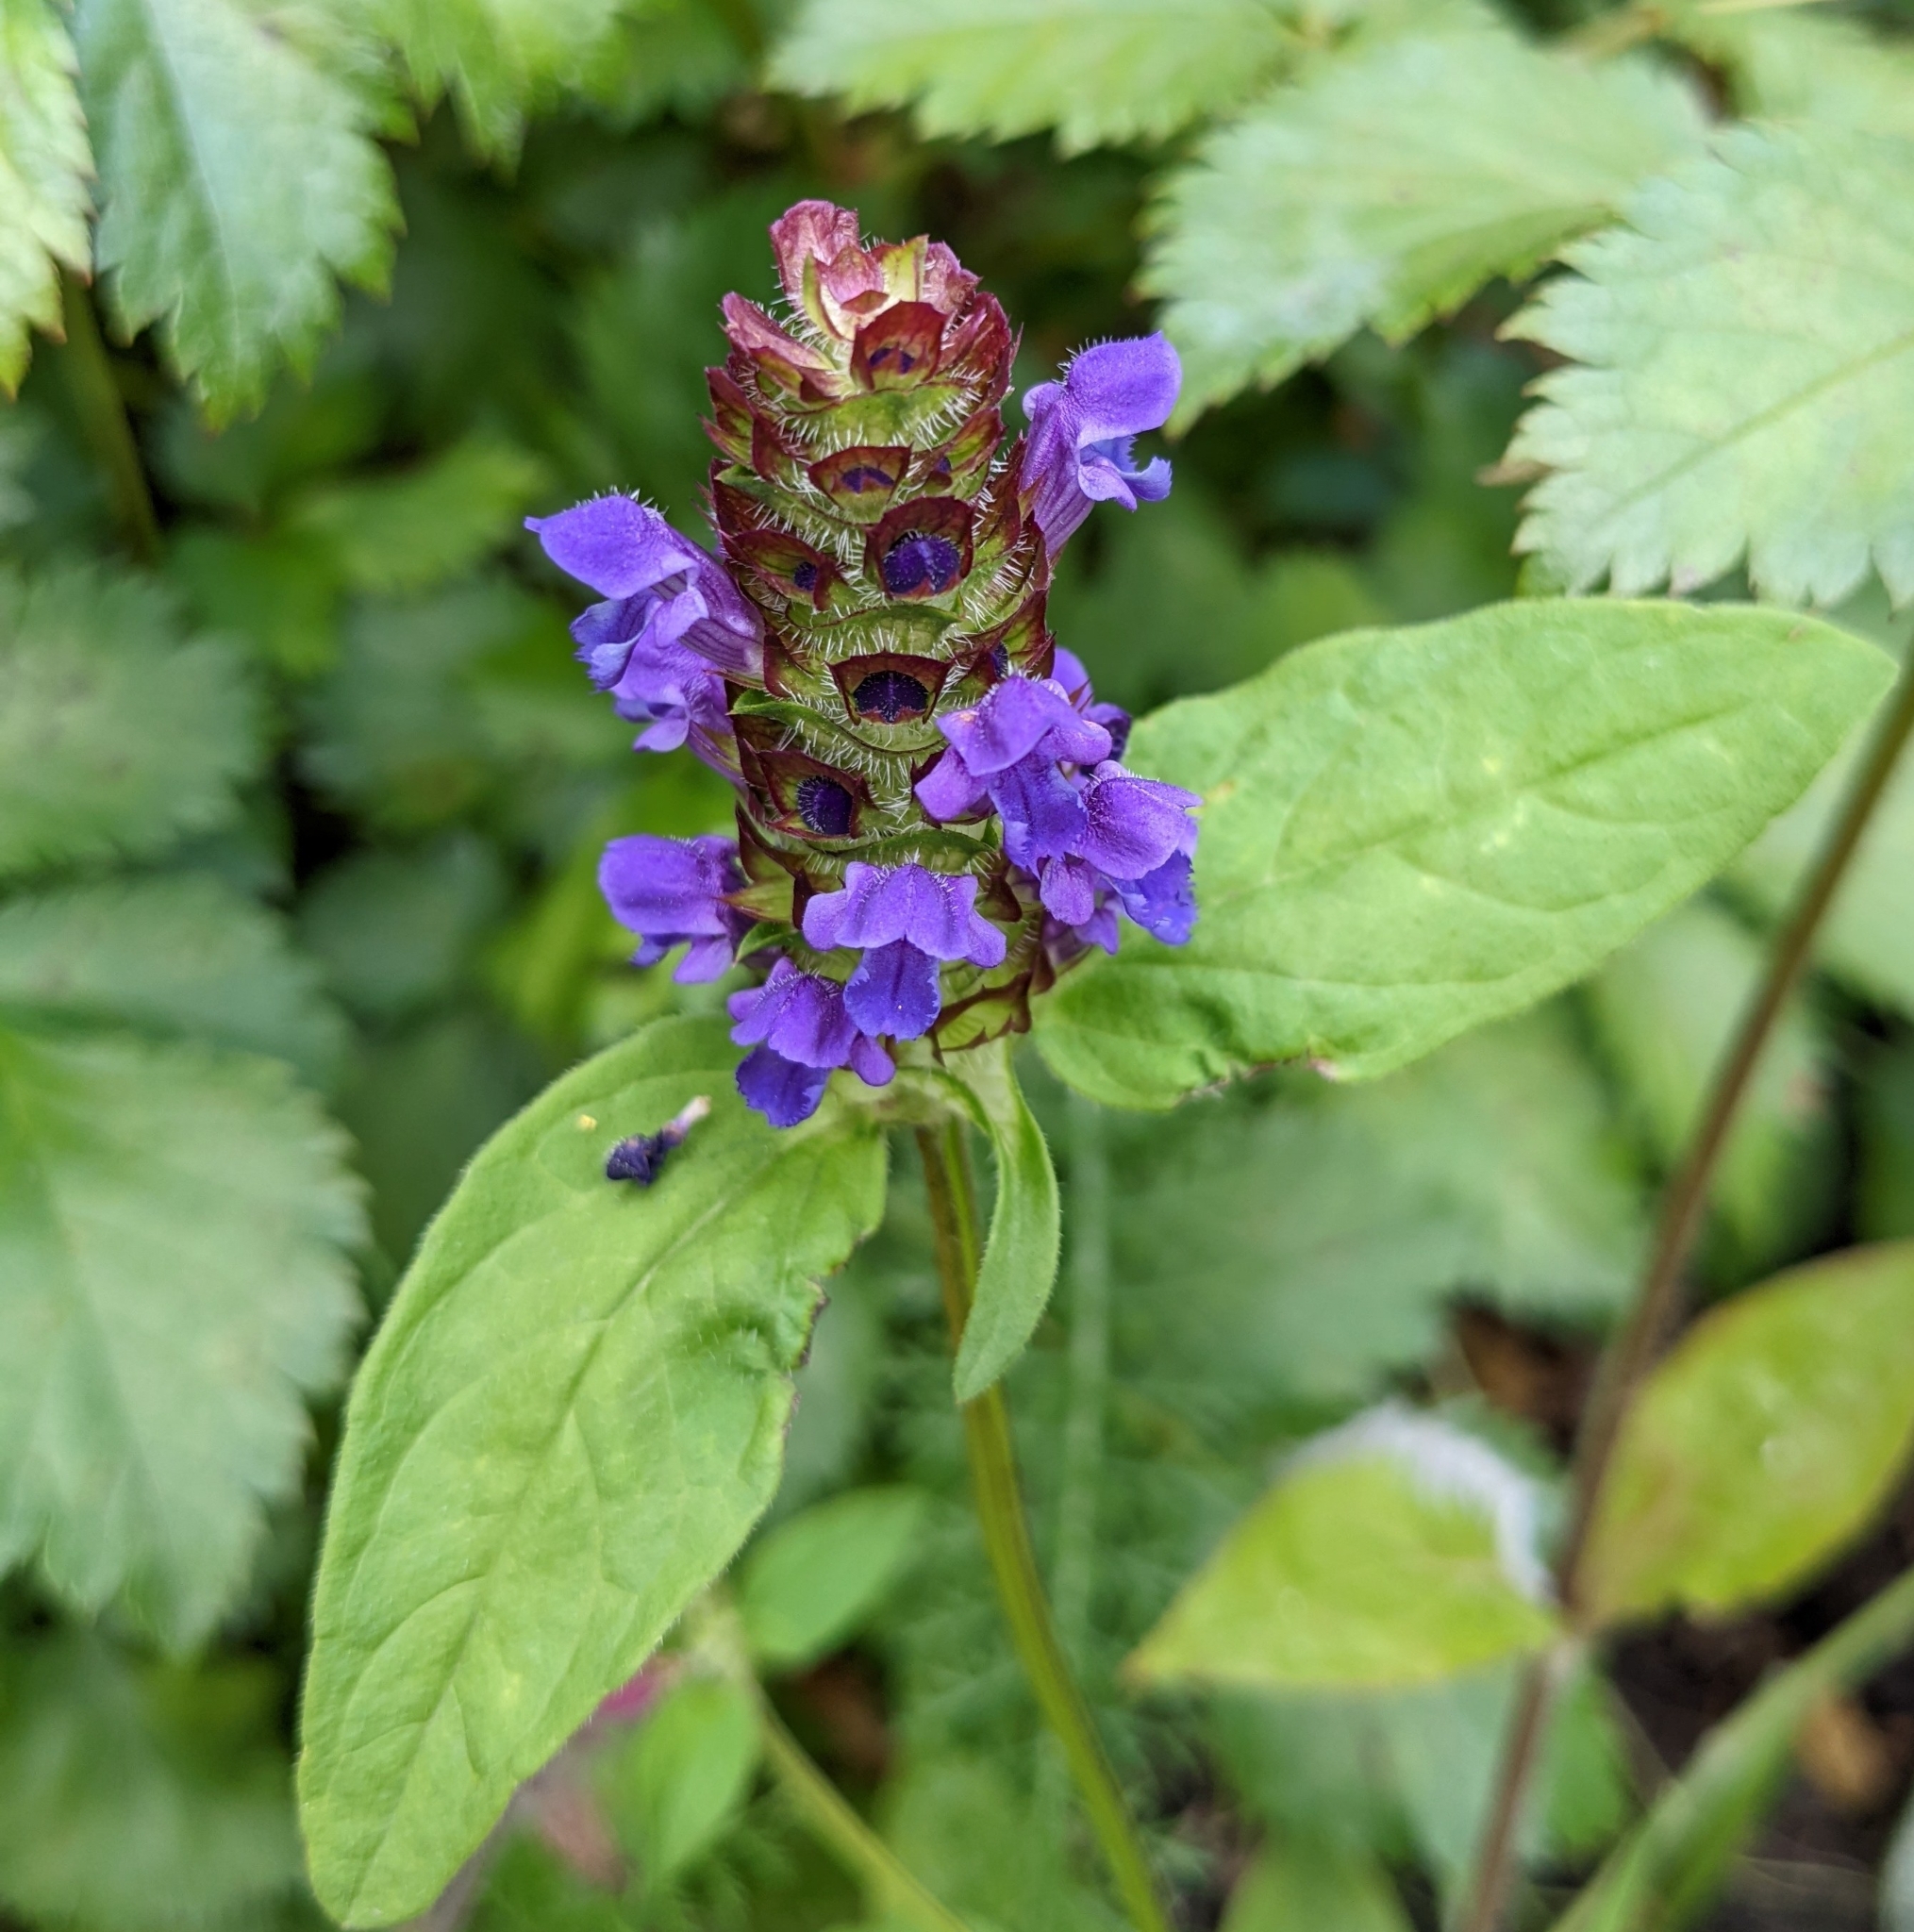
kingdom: Plantae
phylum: Tracheophyta
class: Magnoliopsida
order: Lamiales
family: Lamiaceae
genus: Prunella
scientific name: Prunella vulgaris
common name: Heal-all
